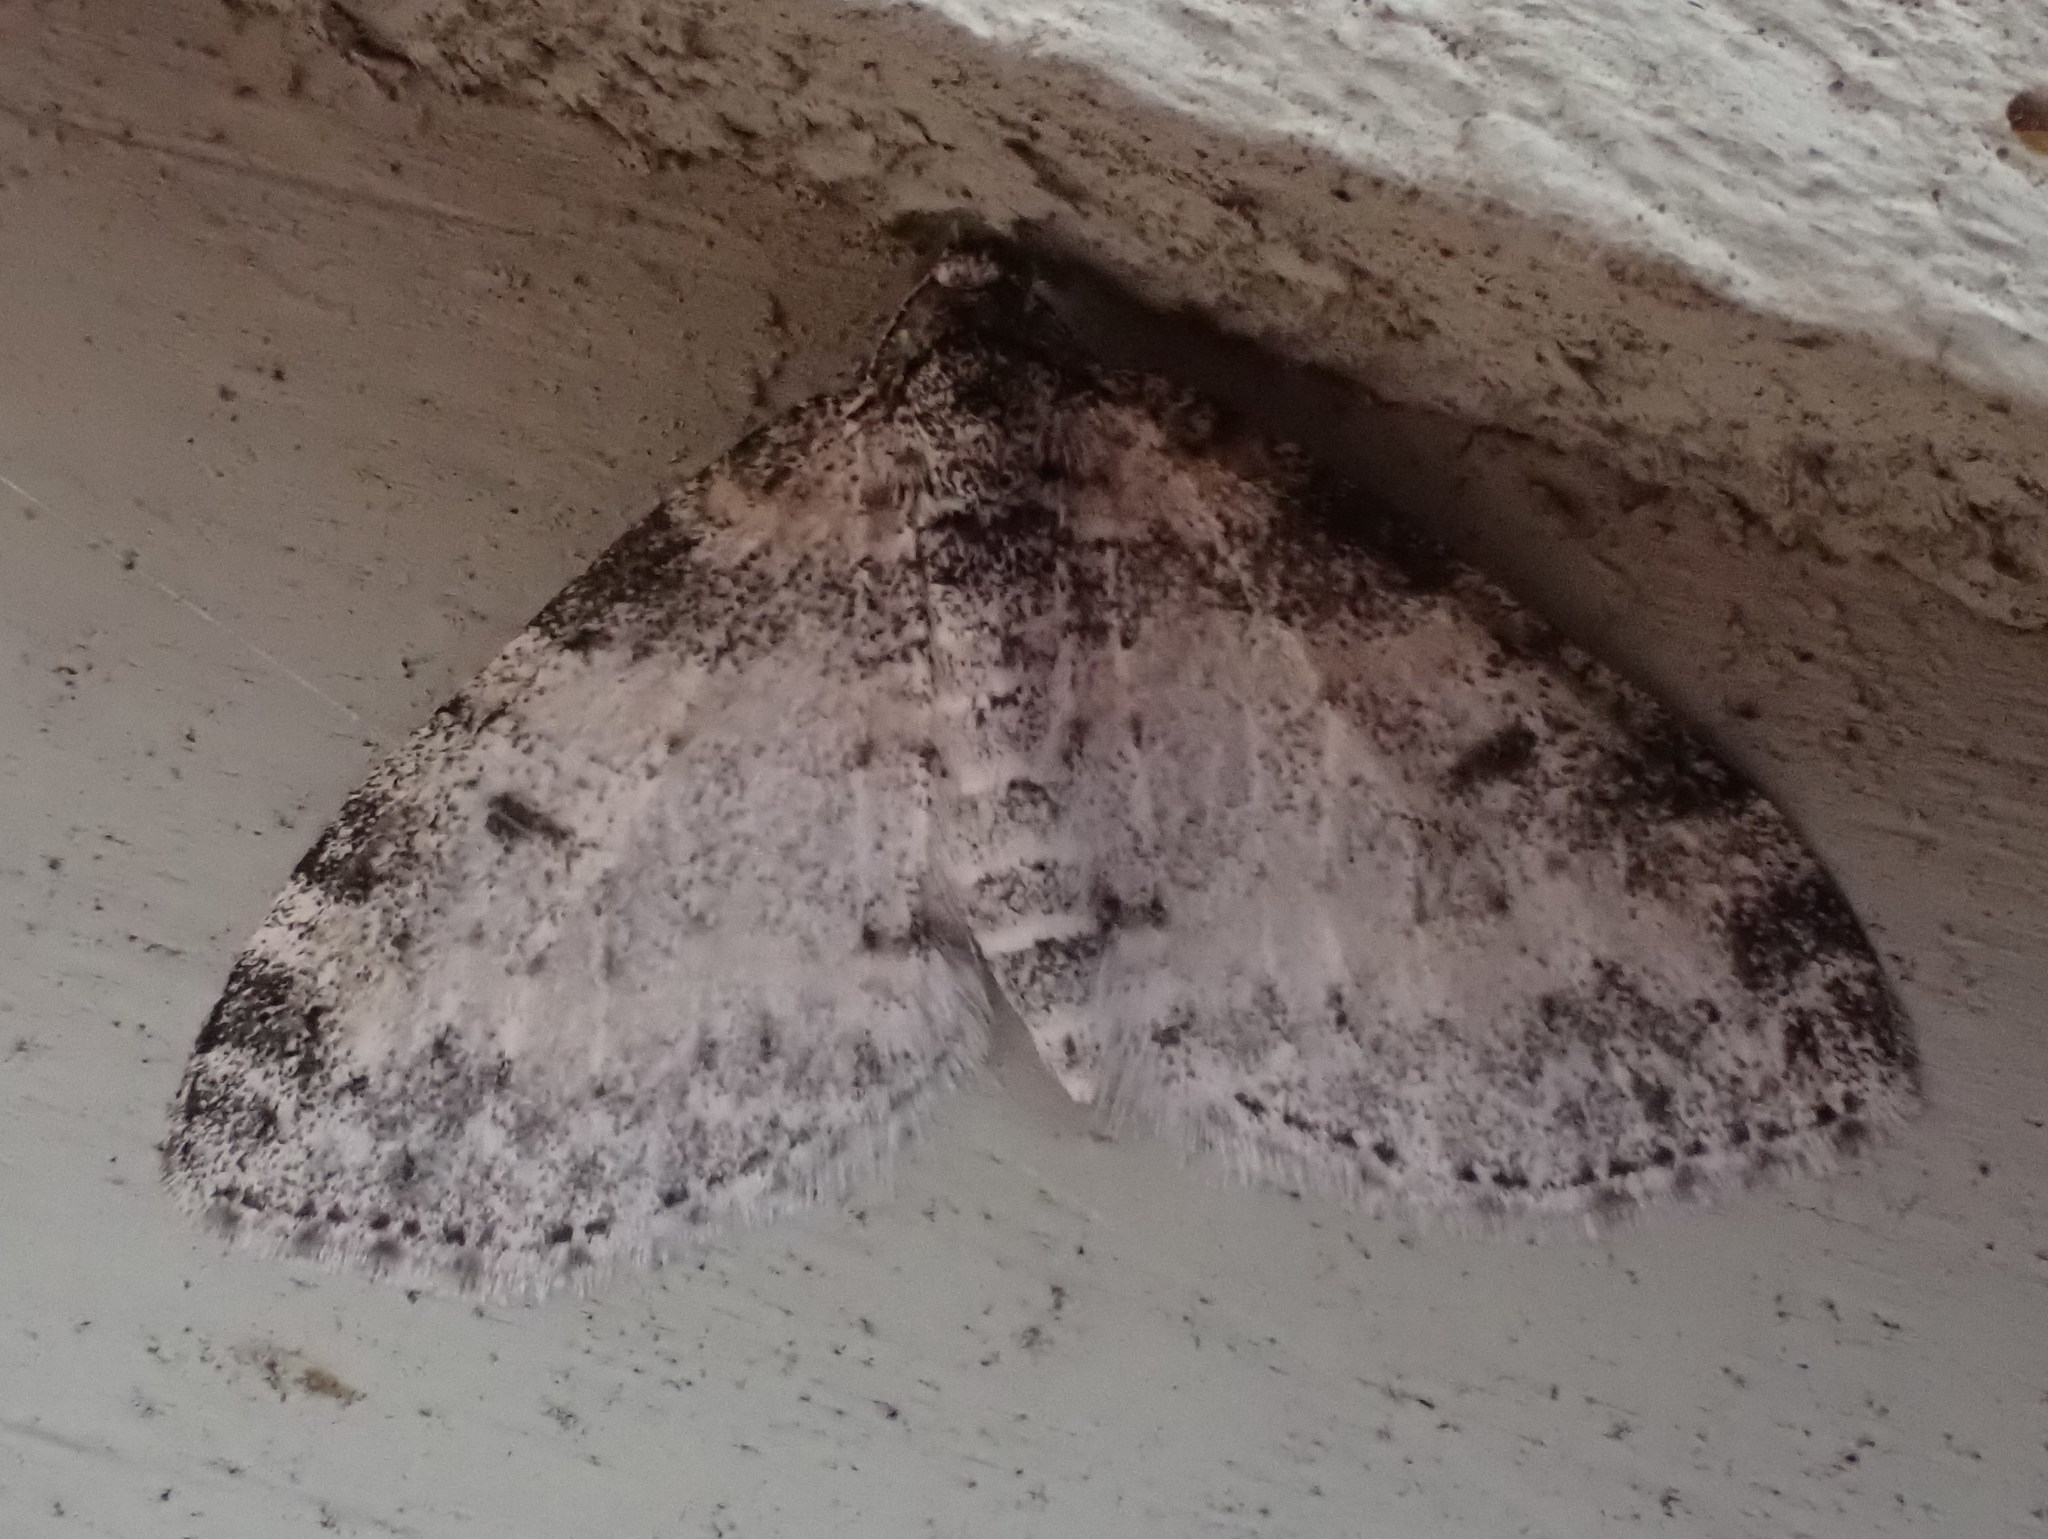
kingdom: Animalia
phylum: Arthropoda
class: Insecta
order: Lepidoptera
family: Geometridae
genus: Lobophora
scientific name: Lobophora nivigerata
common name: Powdered bigwing
